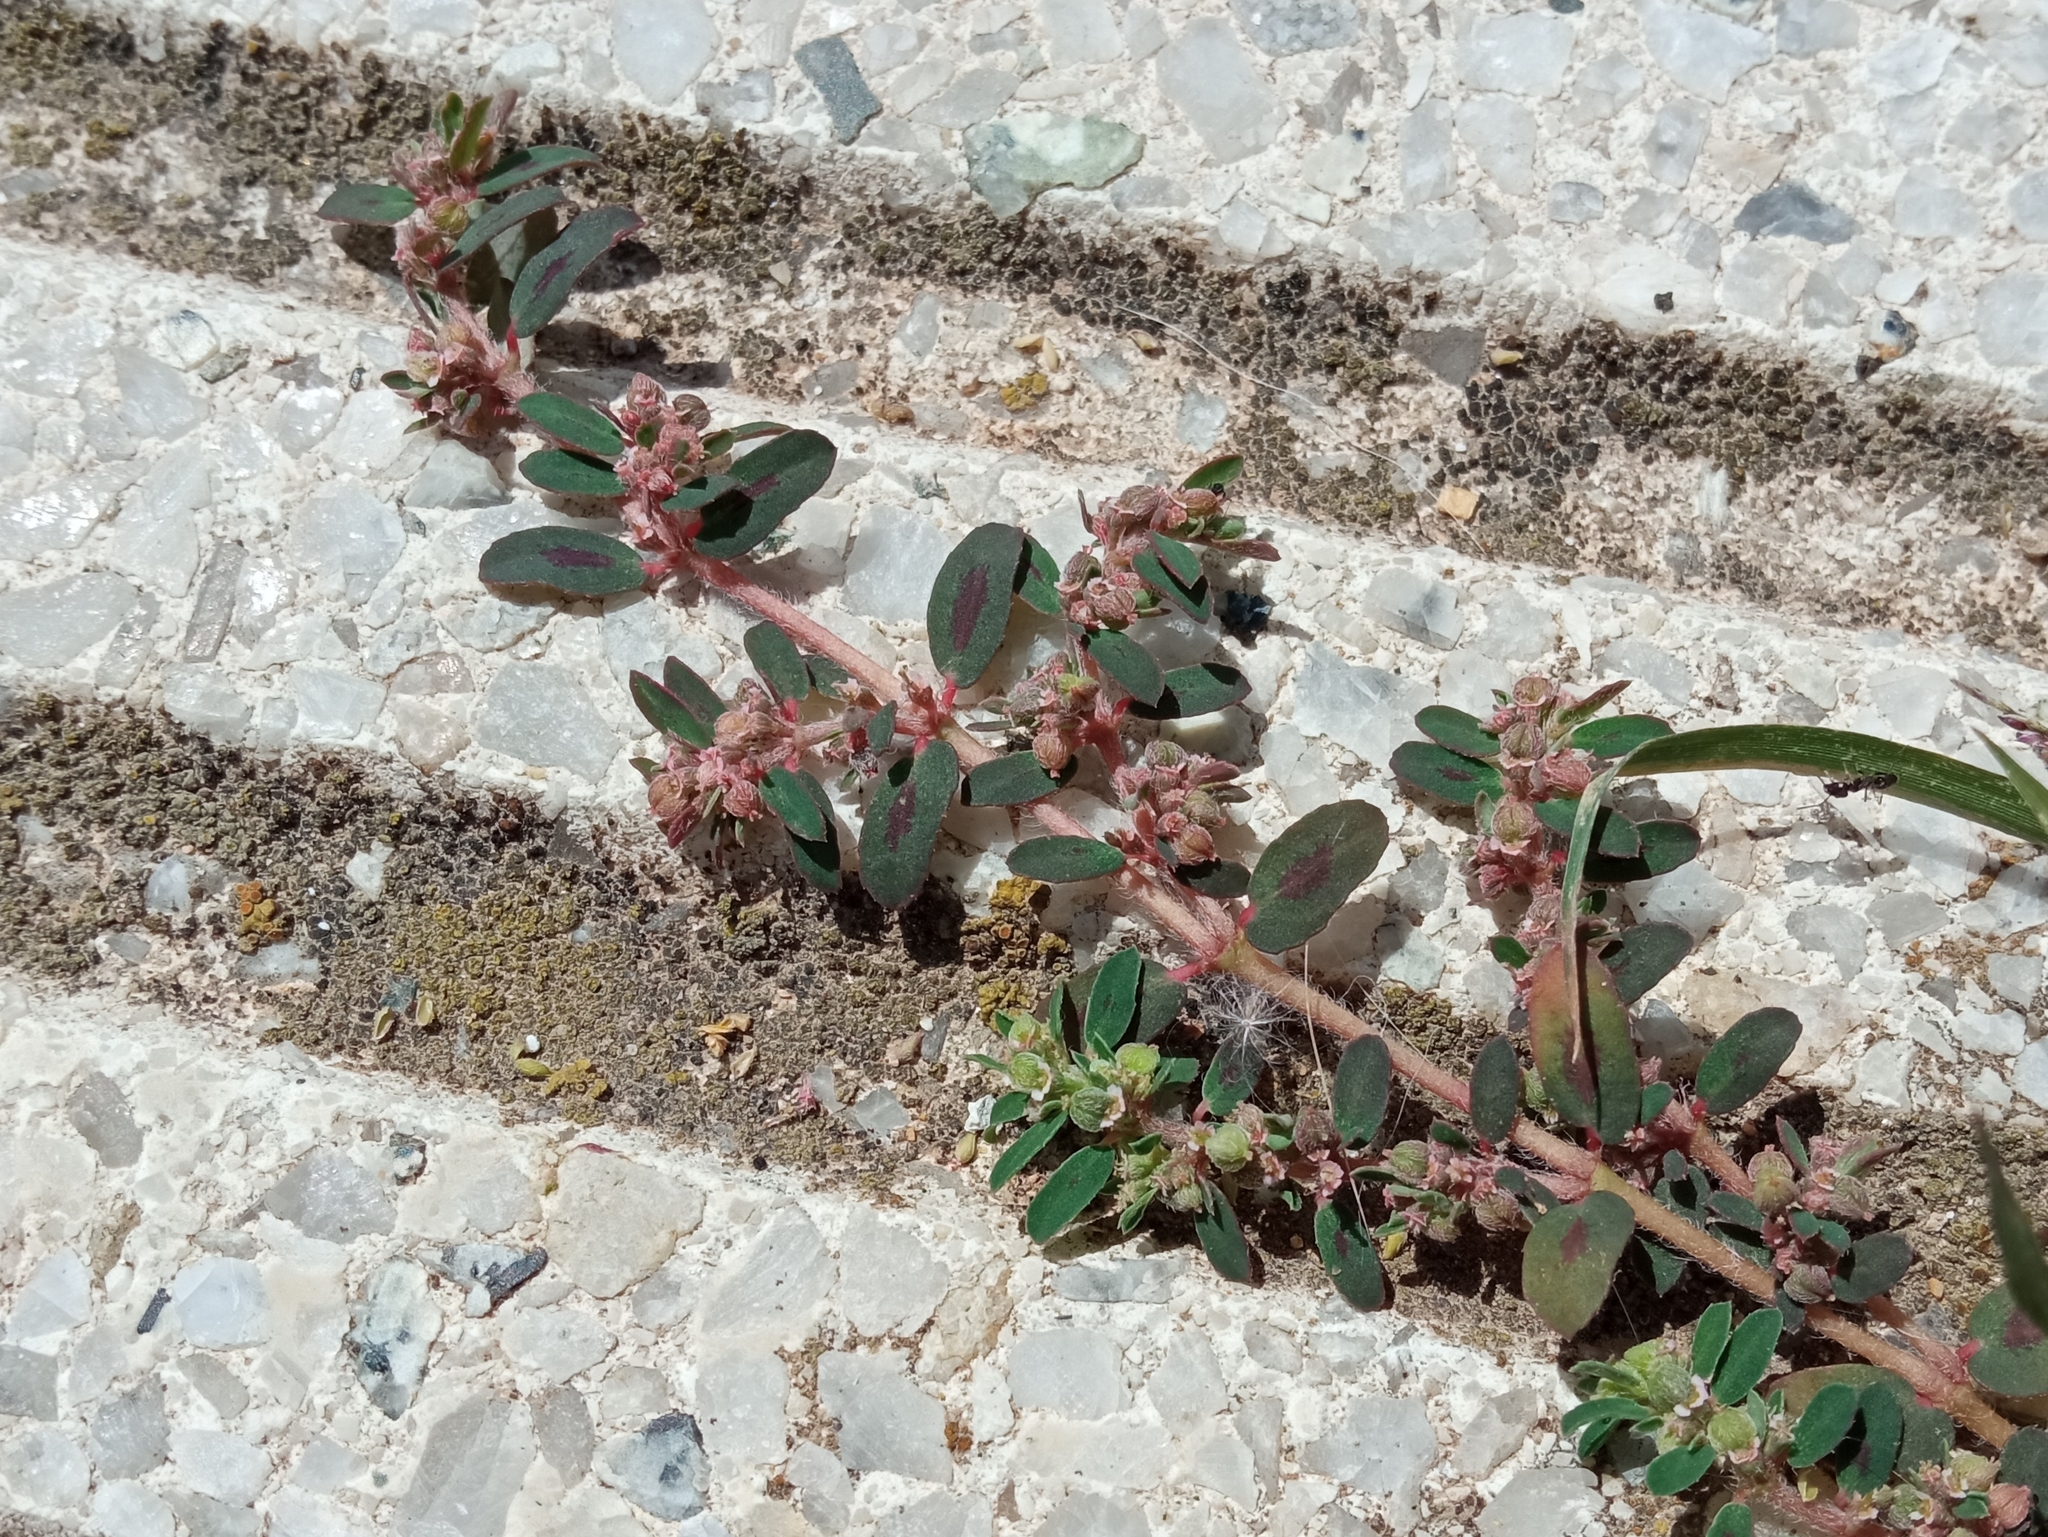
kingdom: Plantae
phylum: Tracheophyta
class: Magnoliopsida
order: Malpighiales
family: Euphorbiaceae
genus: Euphorbia
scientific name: Euphorbia maculata
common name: Spotted spurge
